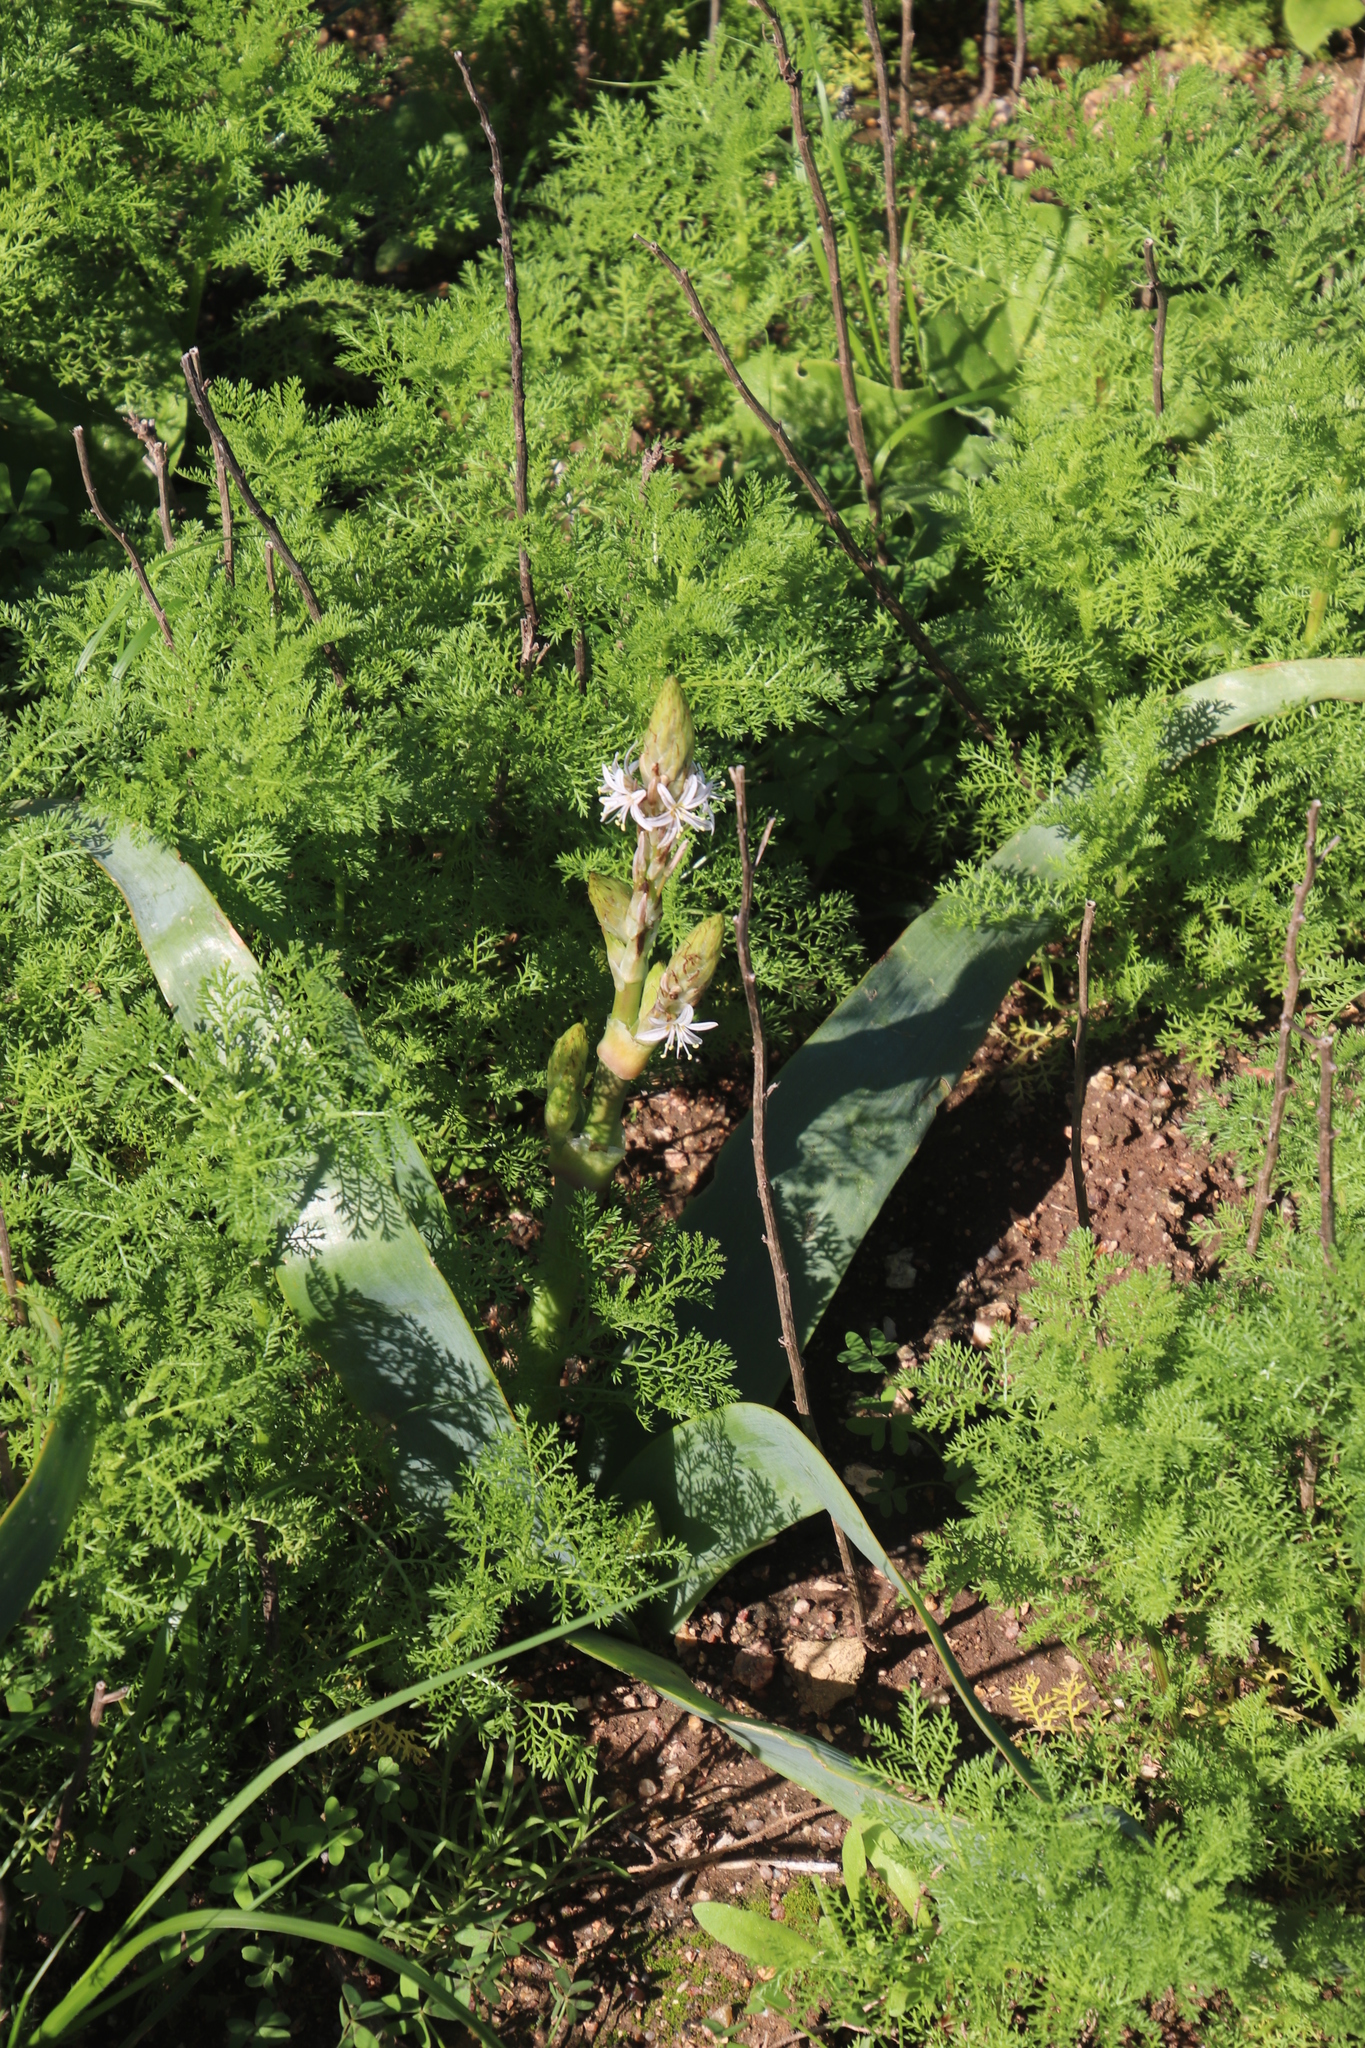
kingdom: Plantae
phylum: Tracheophyta
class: Liliopsida
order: Asparagales
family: Asphodelaceae
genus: Trachyandra
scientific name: Trachyandra falcata
